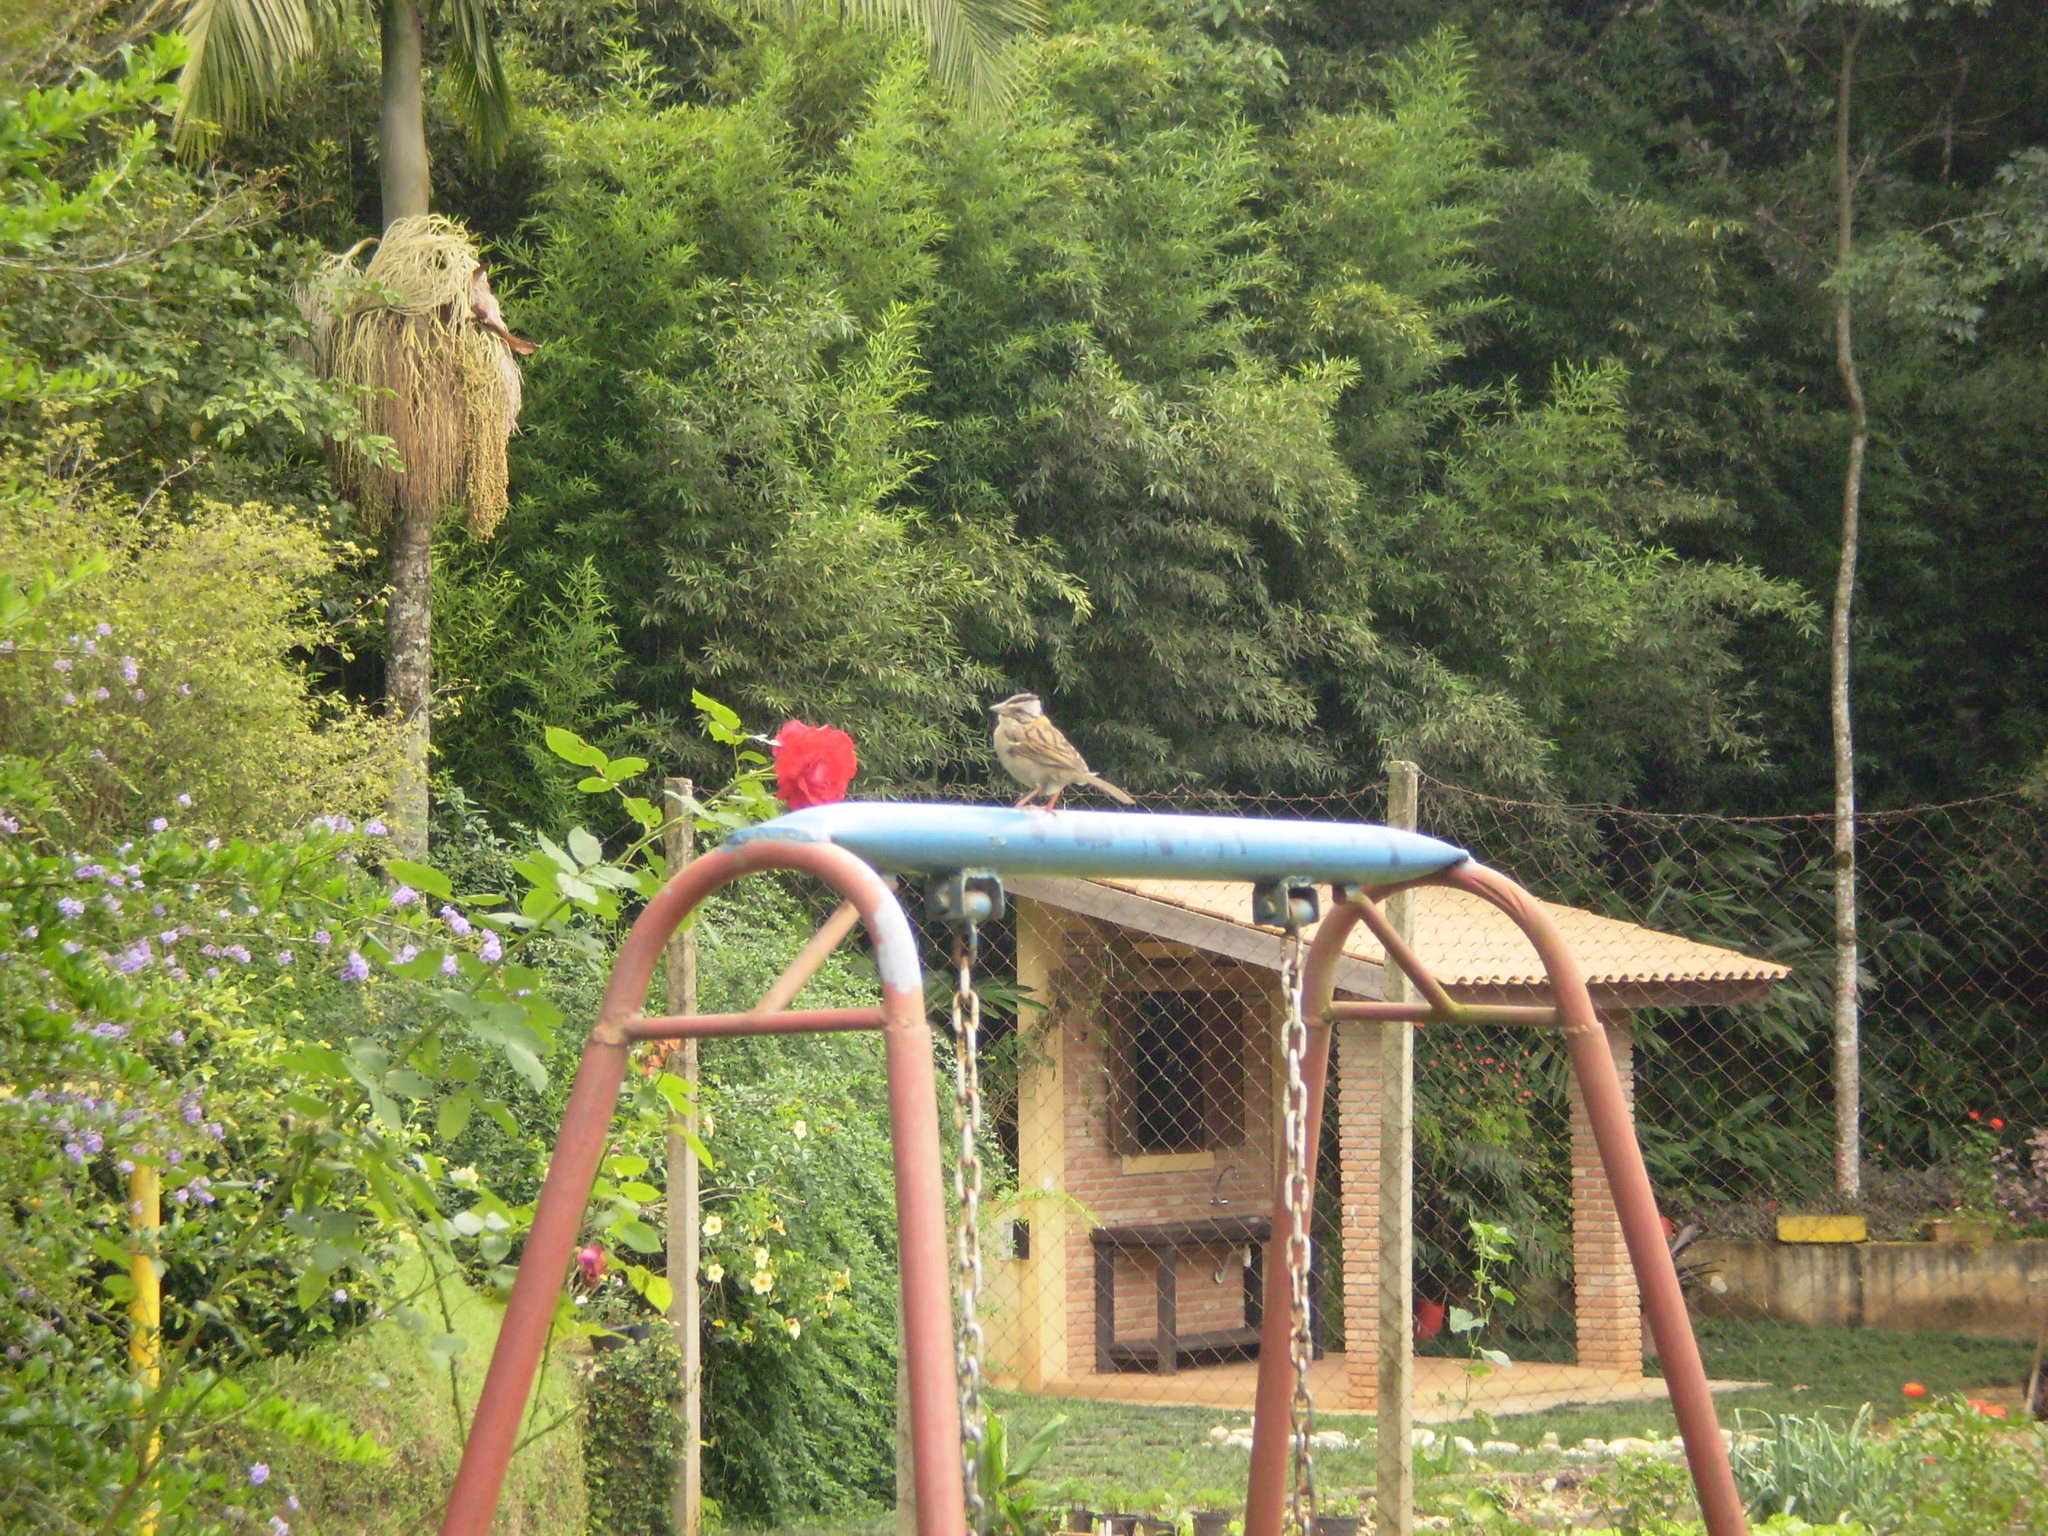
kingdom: Animalia
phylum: Chordata
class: Aves
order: Passeriformes
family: Passerellidae
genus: Zonotrichia
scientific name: Zonotrichia capensis
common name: Rufous-collared sparrow
